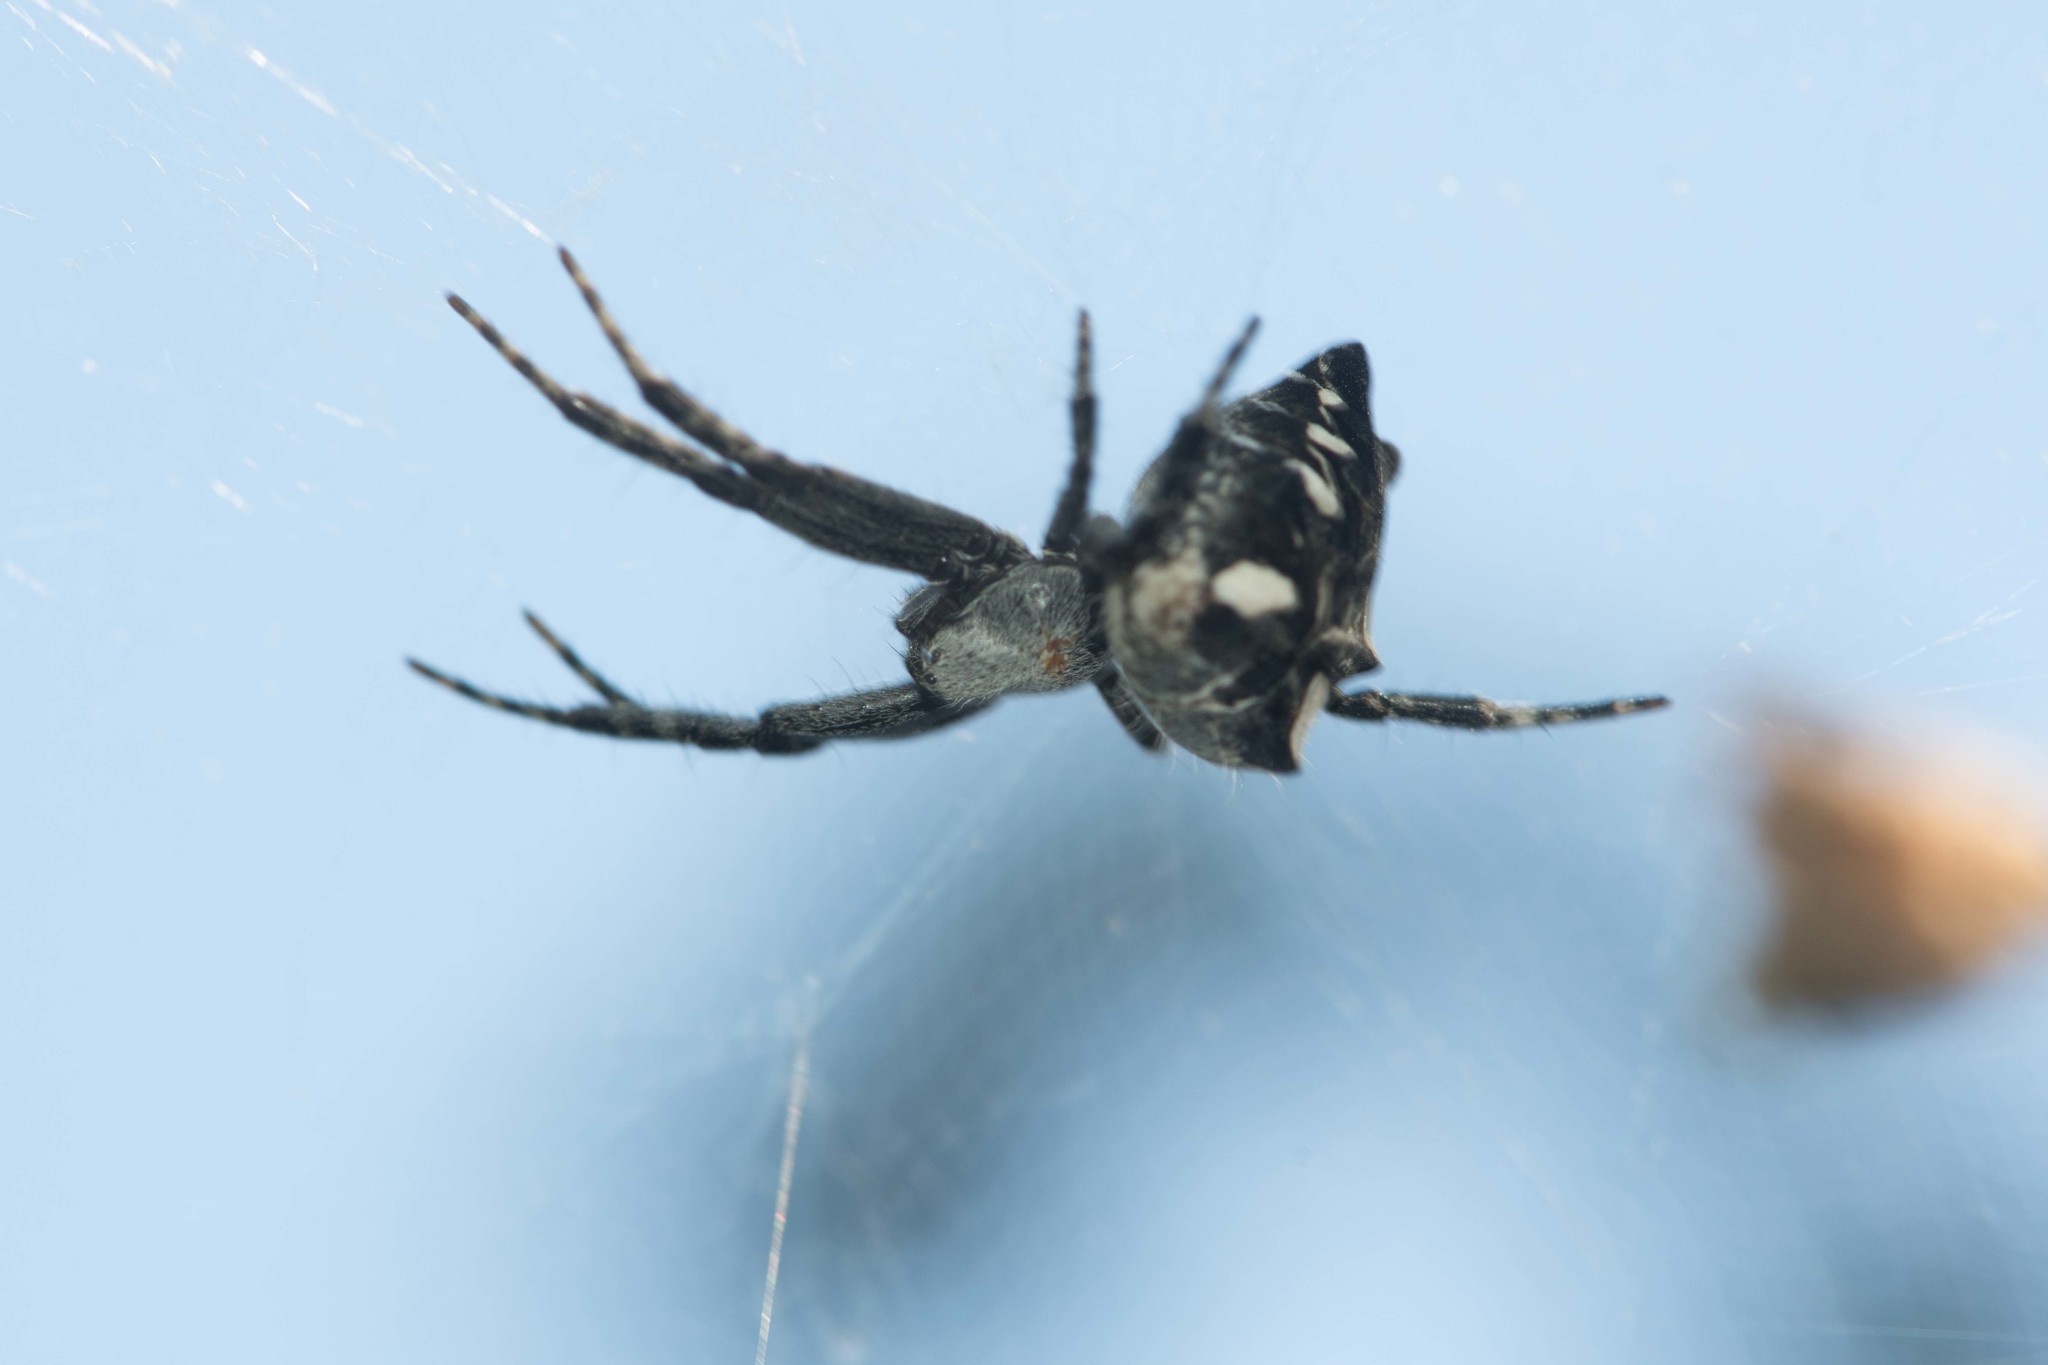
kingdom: Animalia
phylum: Arthropoda
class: Arachnida
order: Araneae
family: Araneidae
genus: Cyrtophora
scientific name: Cyrtophora citricola
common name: Orb weavers
